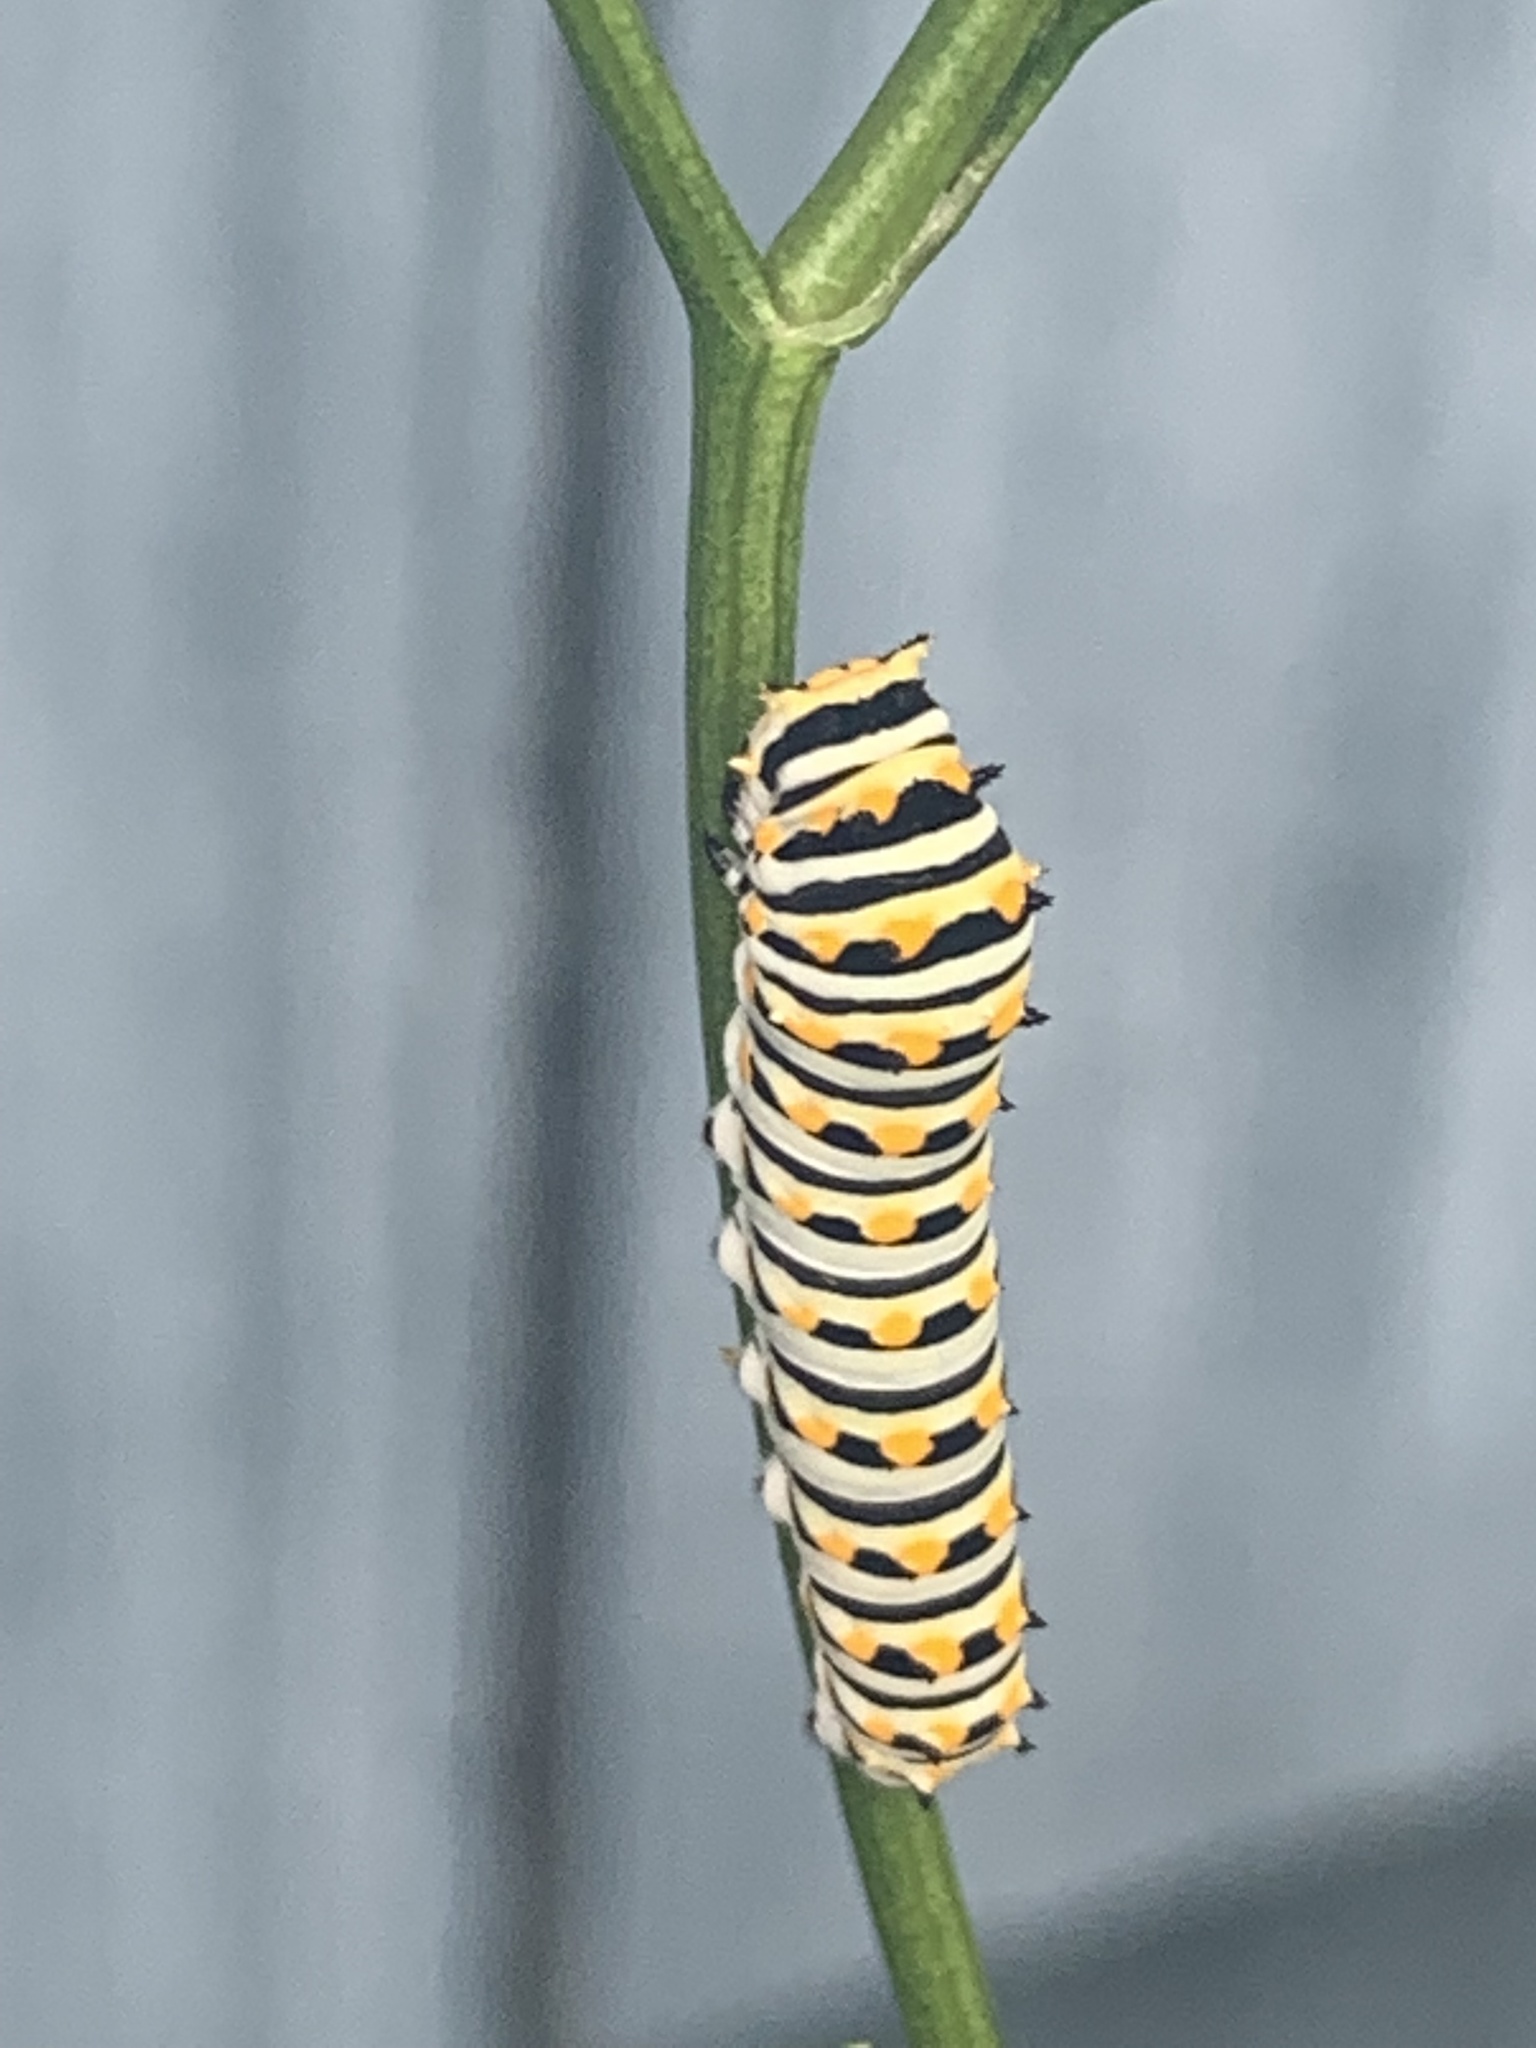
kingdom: Animalia
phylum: Arthropoda
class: Insecta
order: Lepidoptera
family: Papilionidae
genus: Papilio
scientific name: Papilio polyxenes
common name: Black swallowtail
